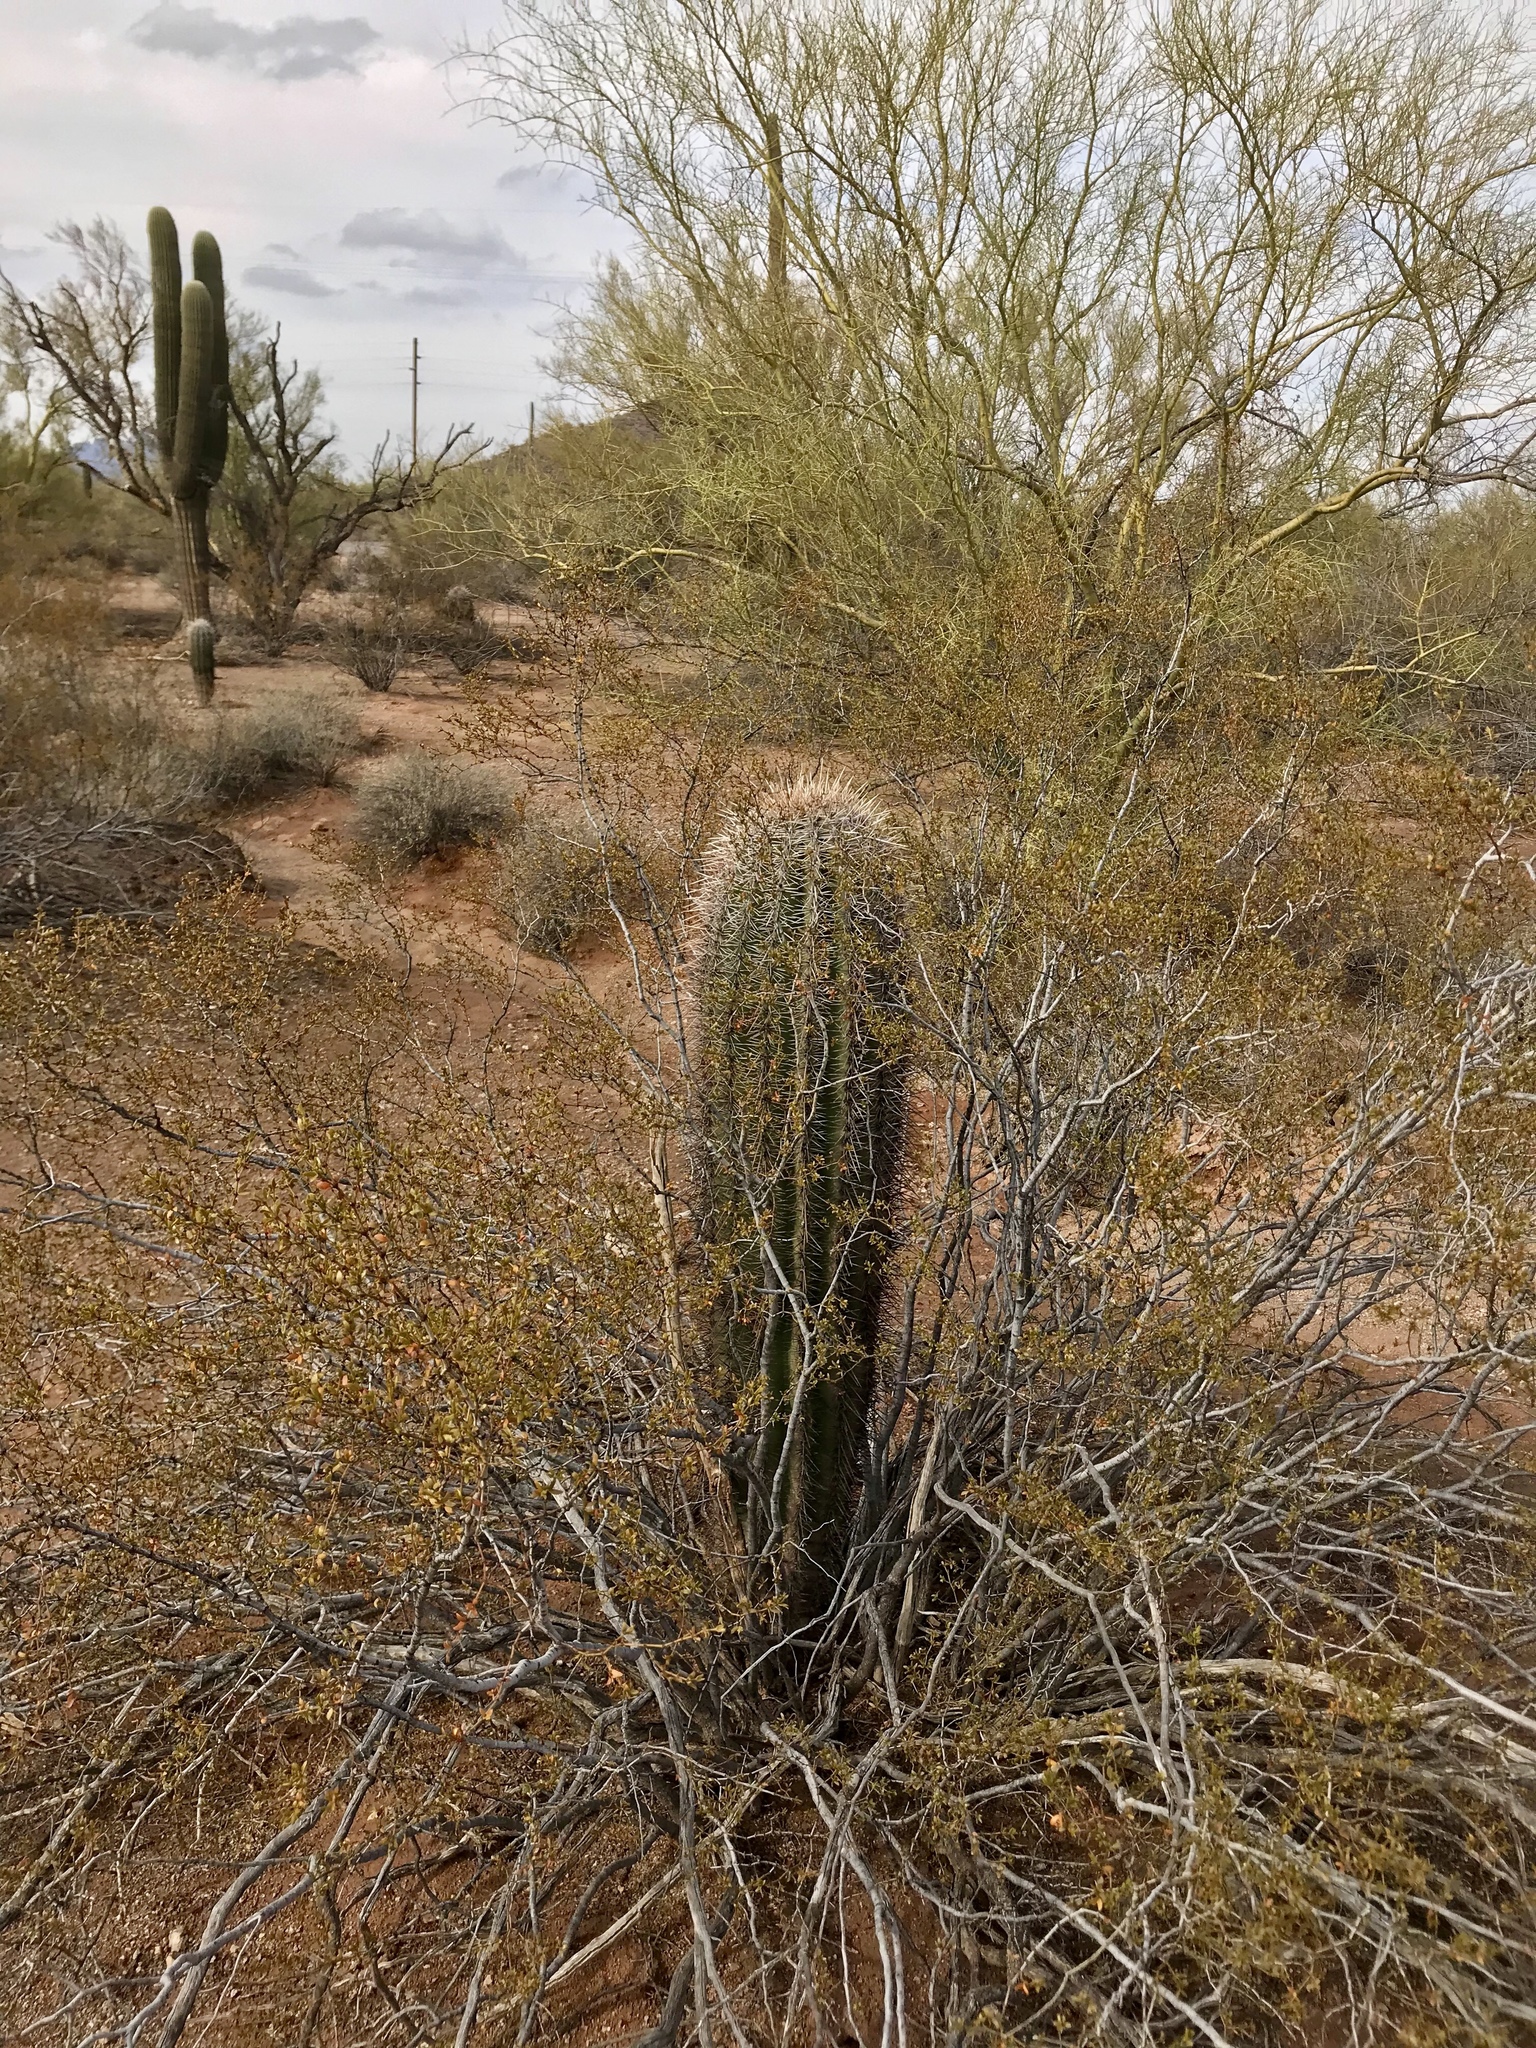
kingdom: Plantae
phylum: Tracheophyta
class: Magnoliopsida
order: Caryophyllales
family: Cactaceae
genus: Carnegiea
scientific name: Carnegiea gigantea
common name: Saguaro
